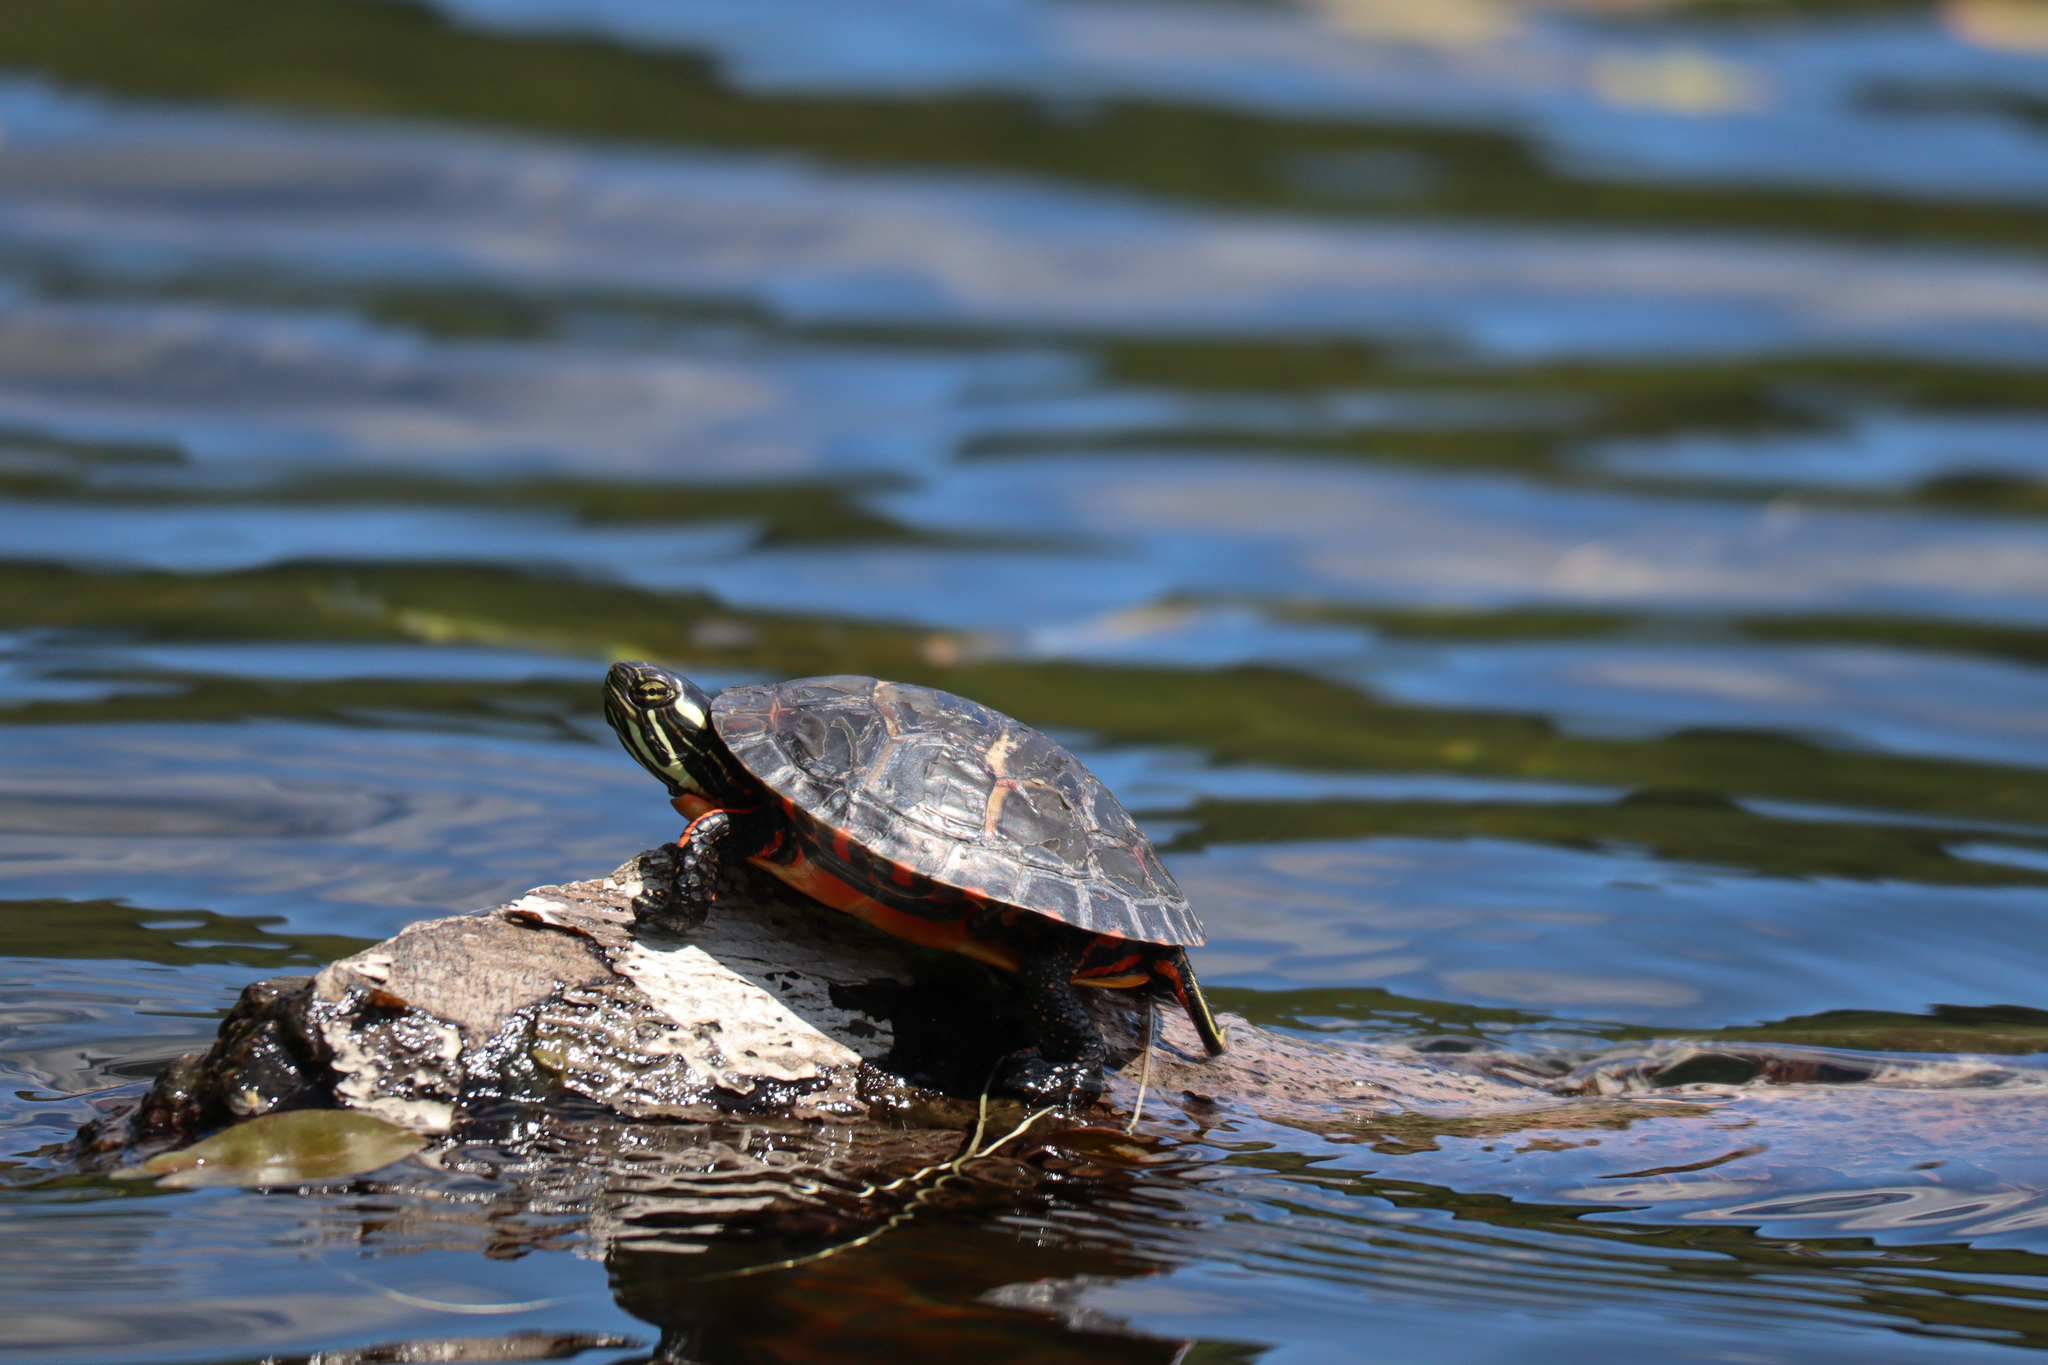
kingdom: Animalia
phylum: Chordata
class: Testudines
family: Emydidae
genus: Chrysemys
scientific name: Chrysemys picta
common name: Painted turtle
